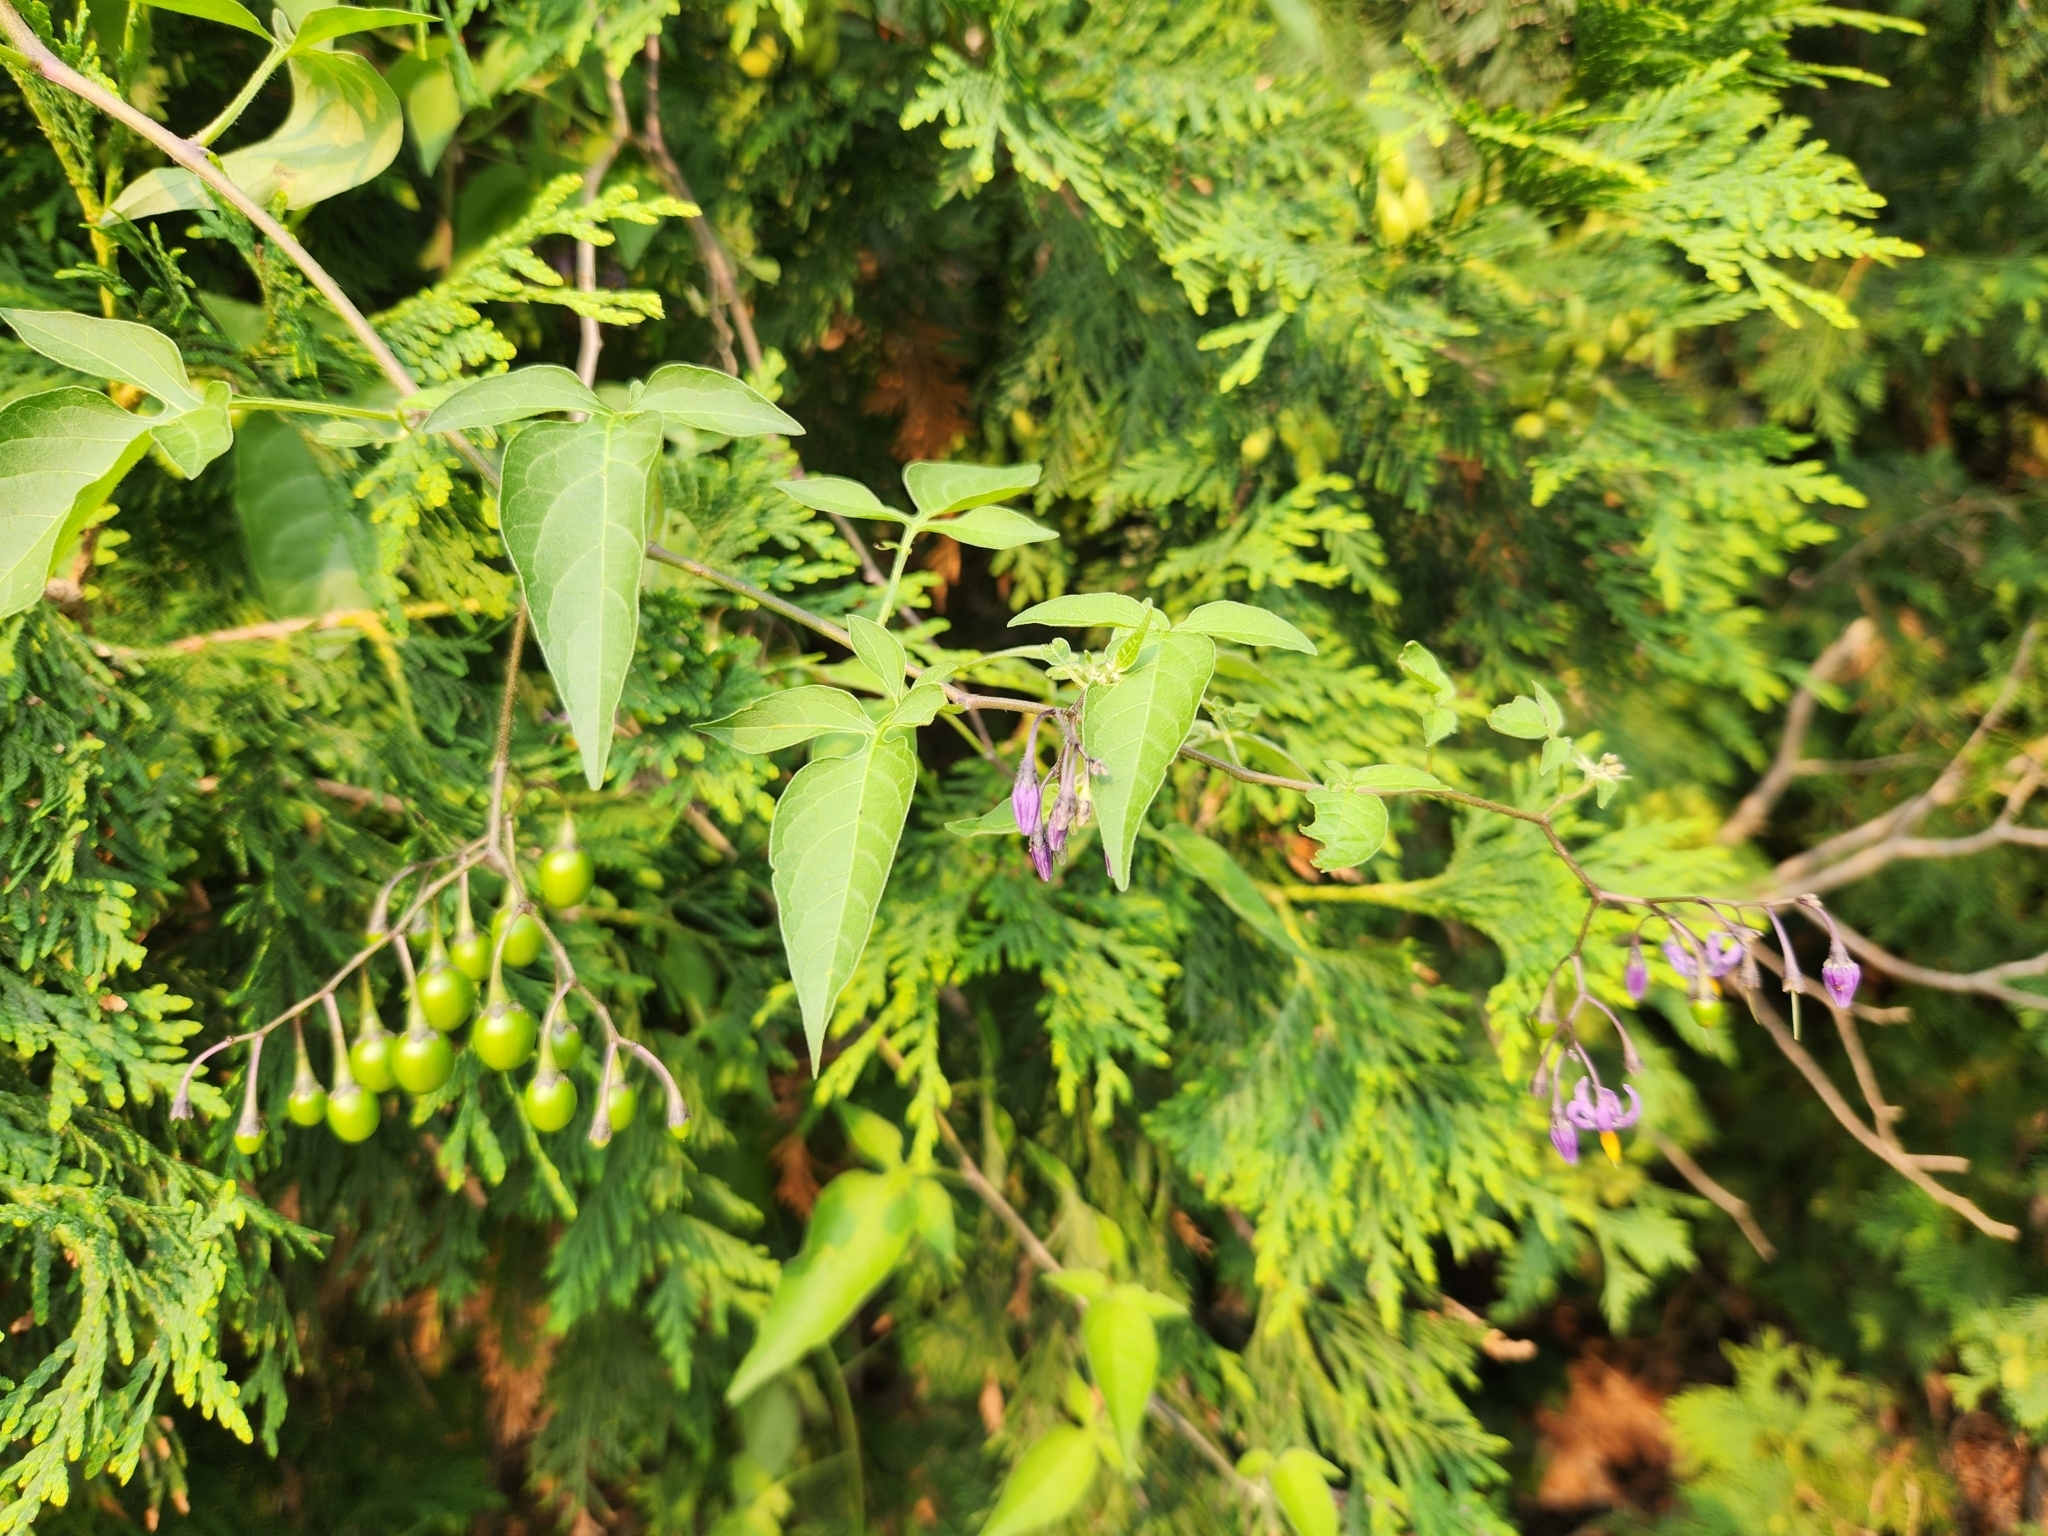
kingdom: Plantae
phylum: Tracheophyta
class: Magnoliopsida
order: Solanales
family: Solanaceae
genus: Solanum
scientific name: Solanum dulcamara
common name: Climbing nightshade
